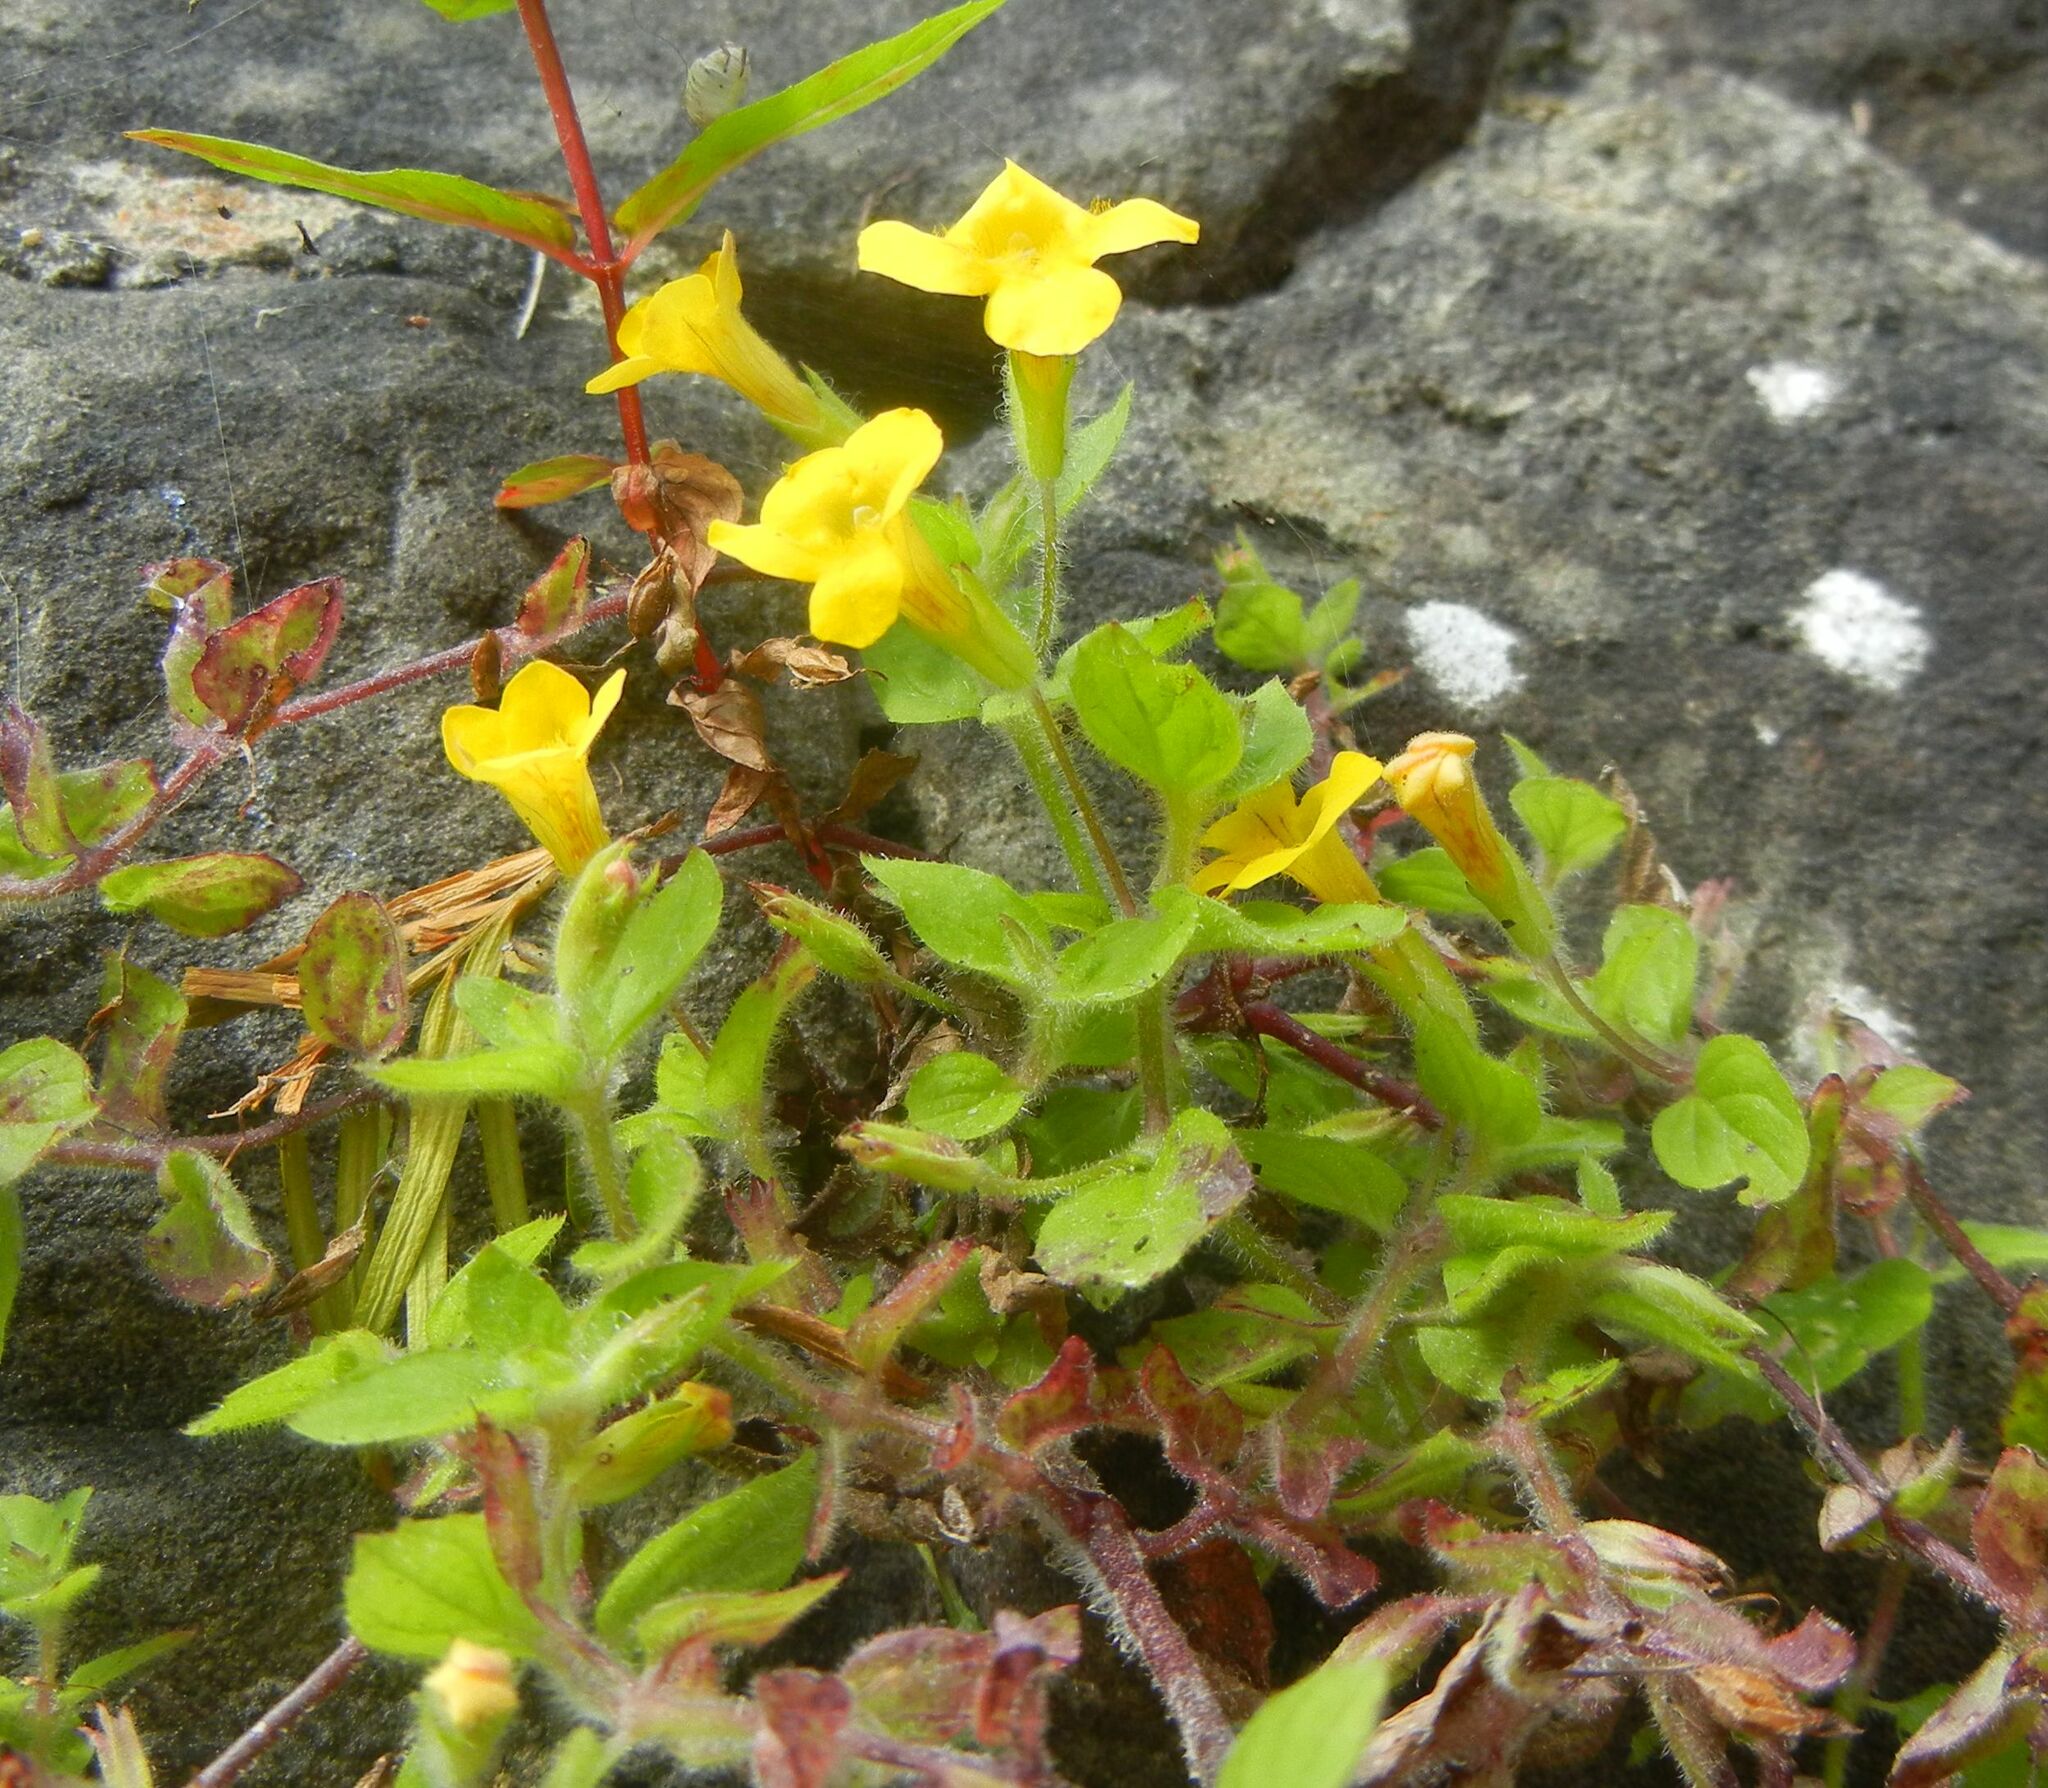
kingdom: Plantae
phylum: Tracheophyta
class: Magnoliopsida
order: Lamiales
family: Phrymaceae
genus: Erythranthe
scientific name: Erythranthe moschata
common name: Muskflower
